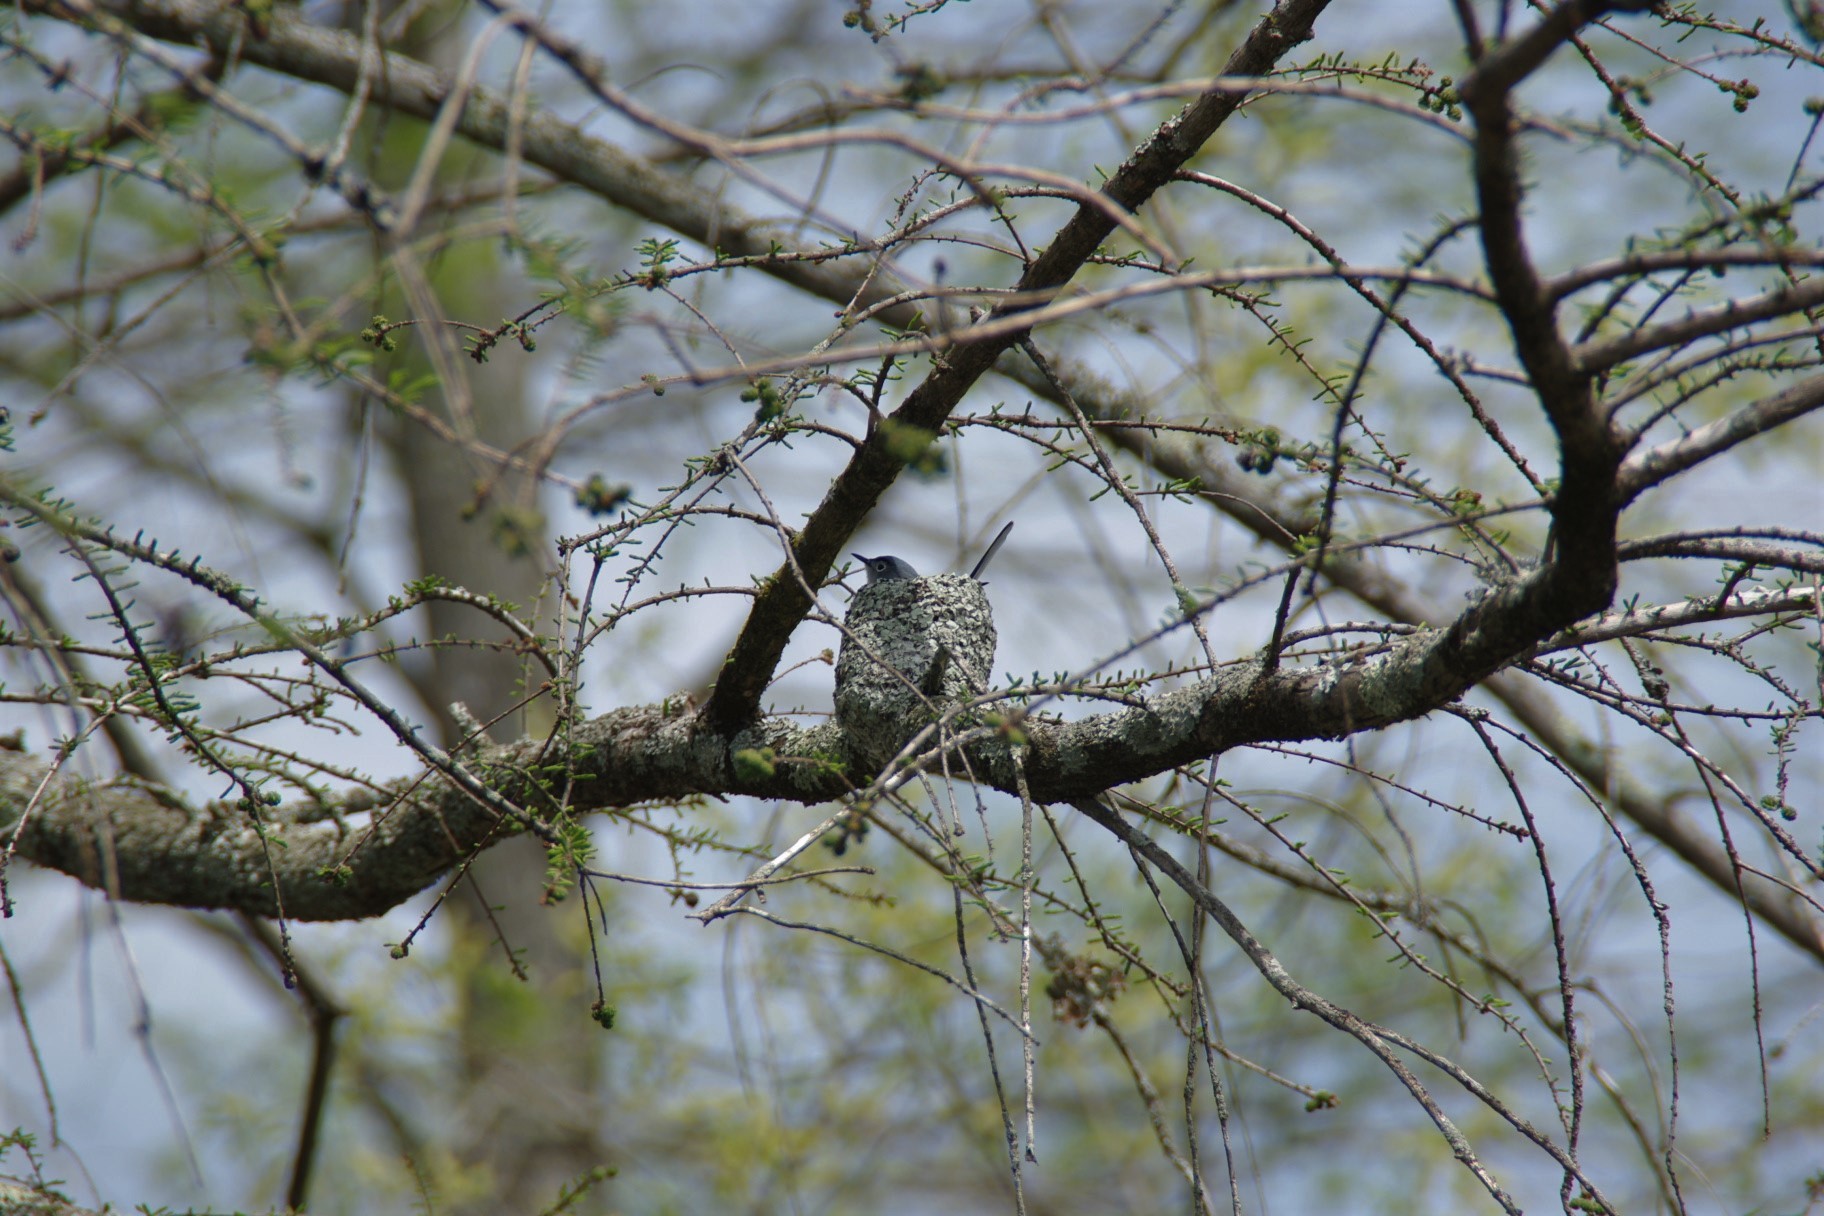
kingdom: Animalia
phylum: Chordata
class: Aves
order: Passeriformes
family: Polioptilidae
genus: Polioptila
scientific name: Polioptila caerulea
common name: Blue-gray gnatcatcher
